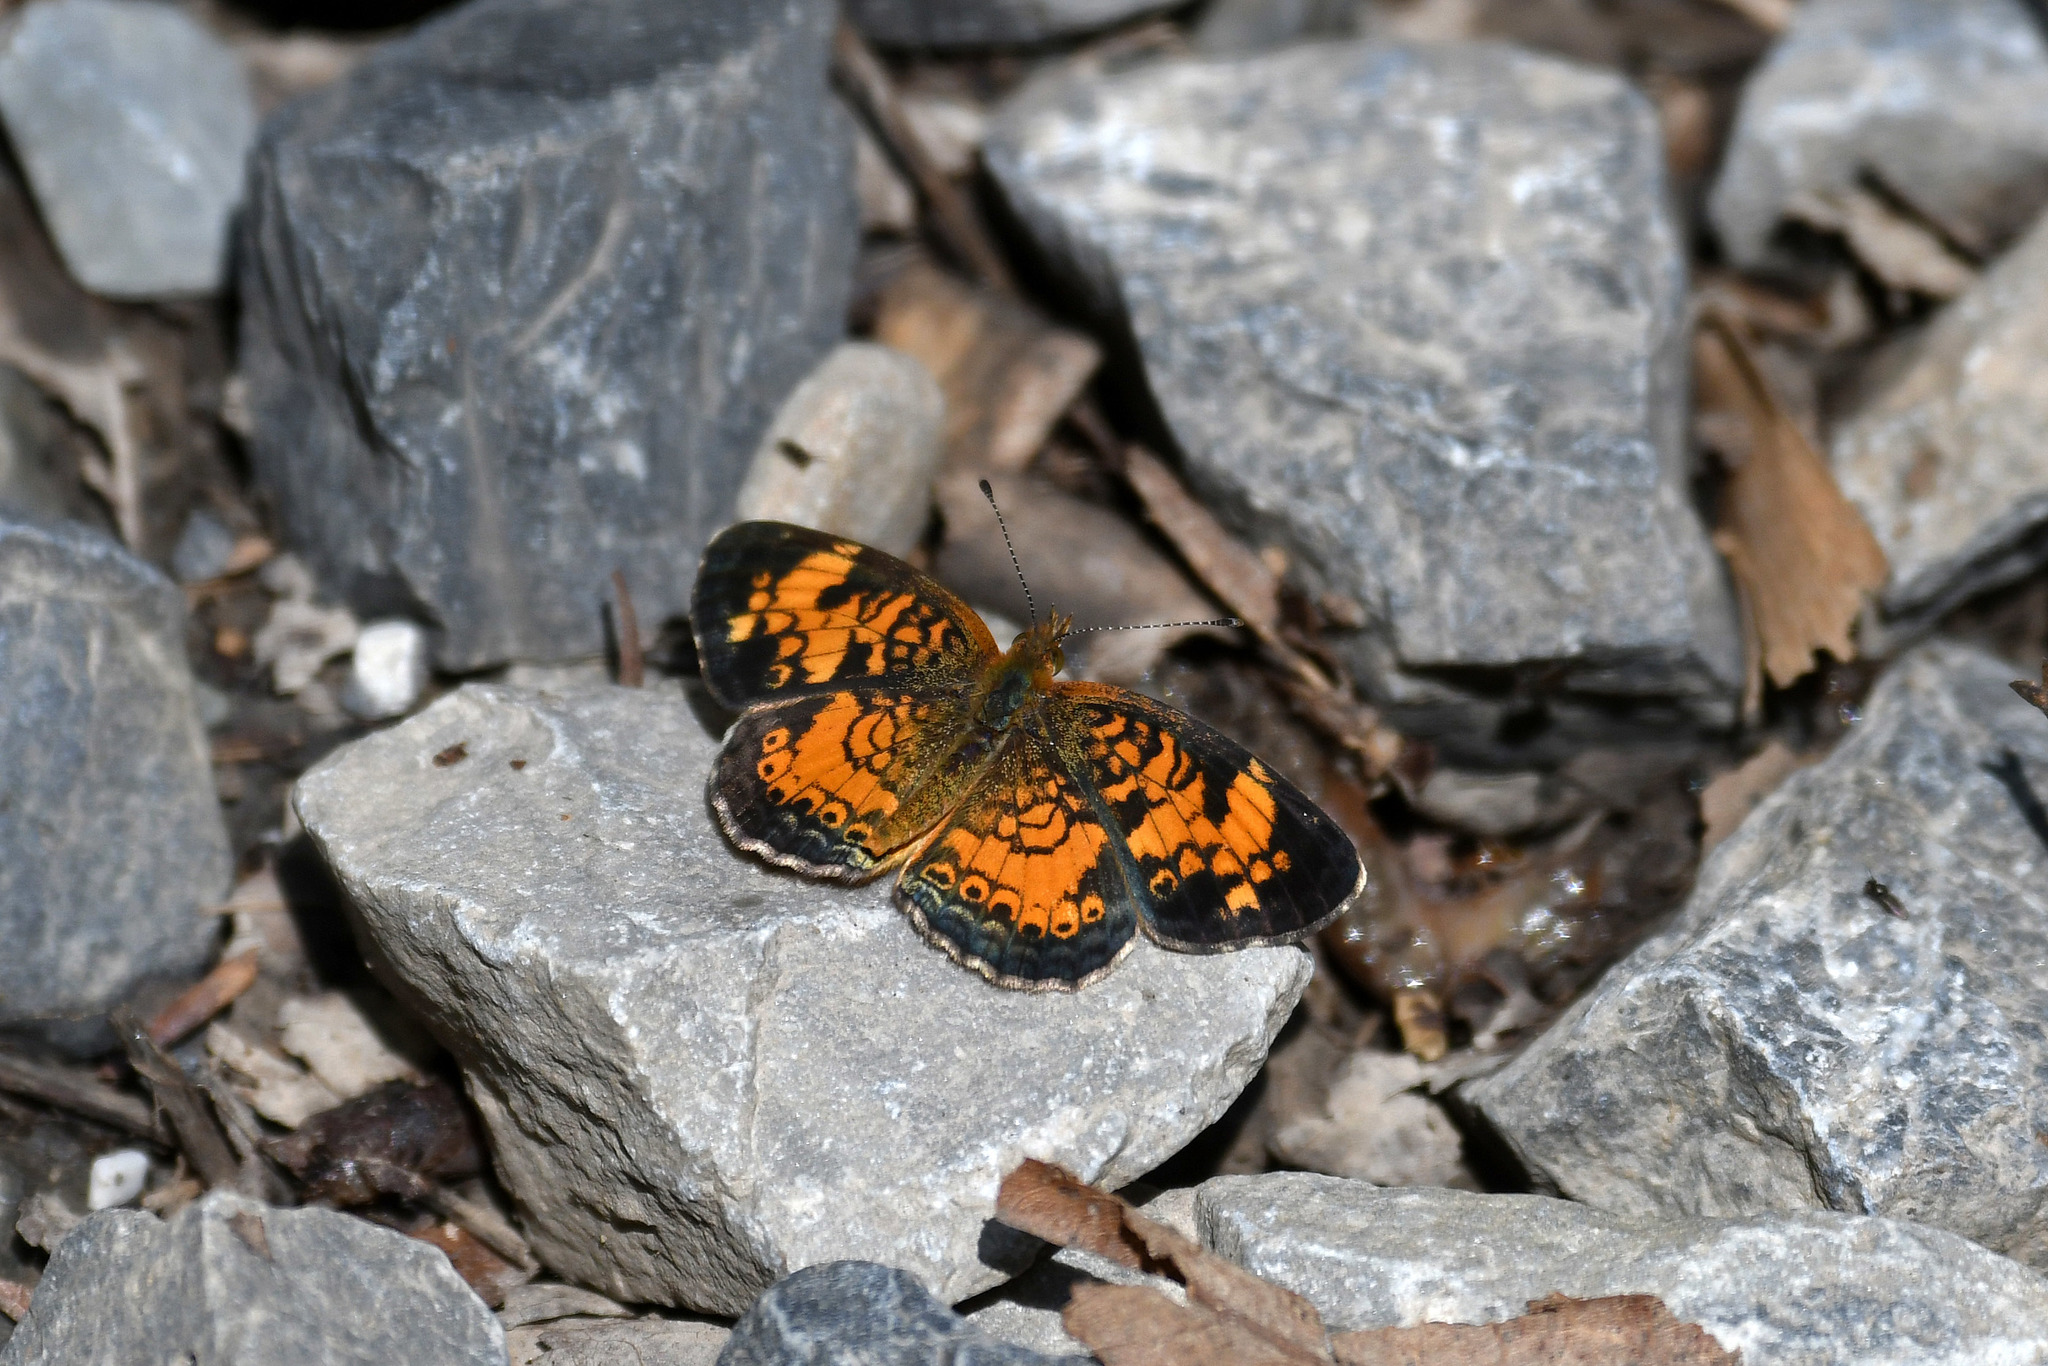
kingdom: Animalia
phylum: Arthropoda
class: Insecta
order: Lepidoptera
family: Nymphalidae
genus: Phyciodes
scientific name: Phyciodes tharos
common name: Pearl crescent
